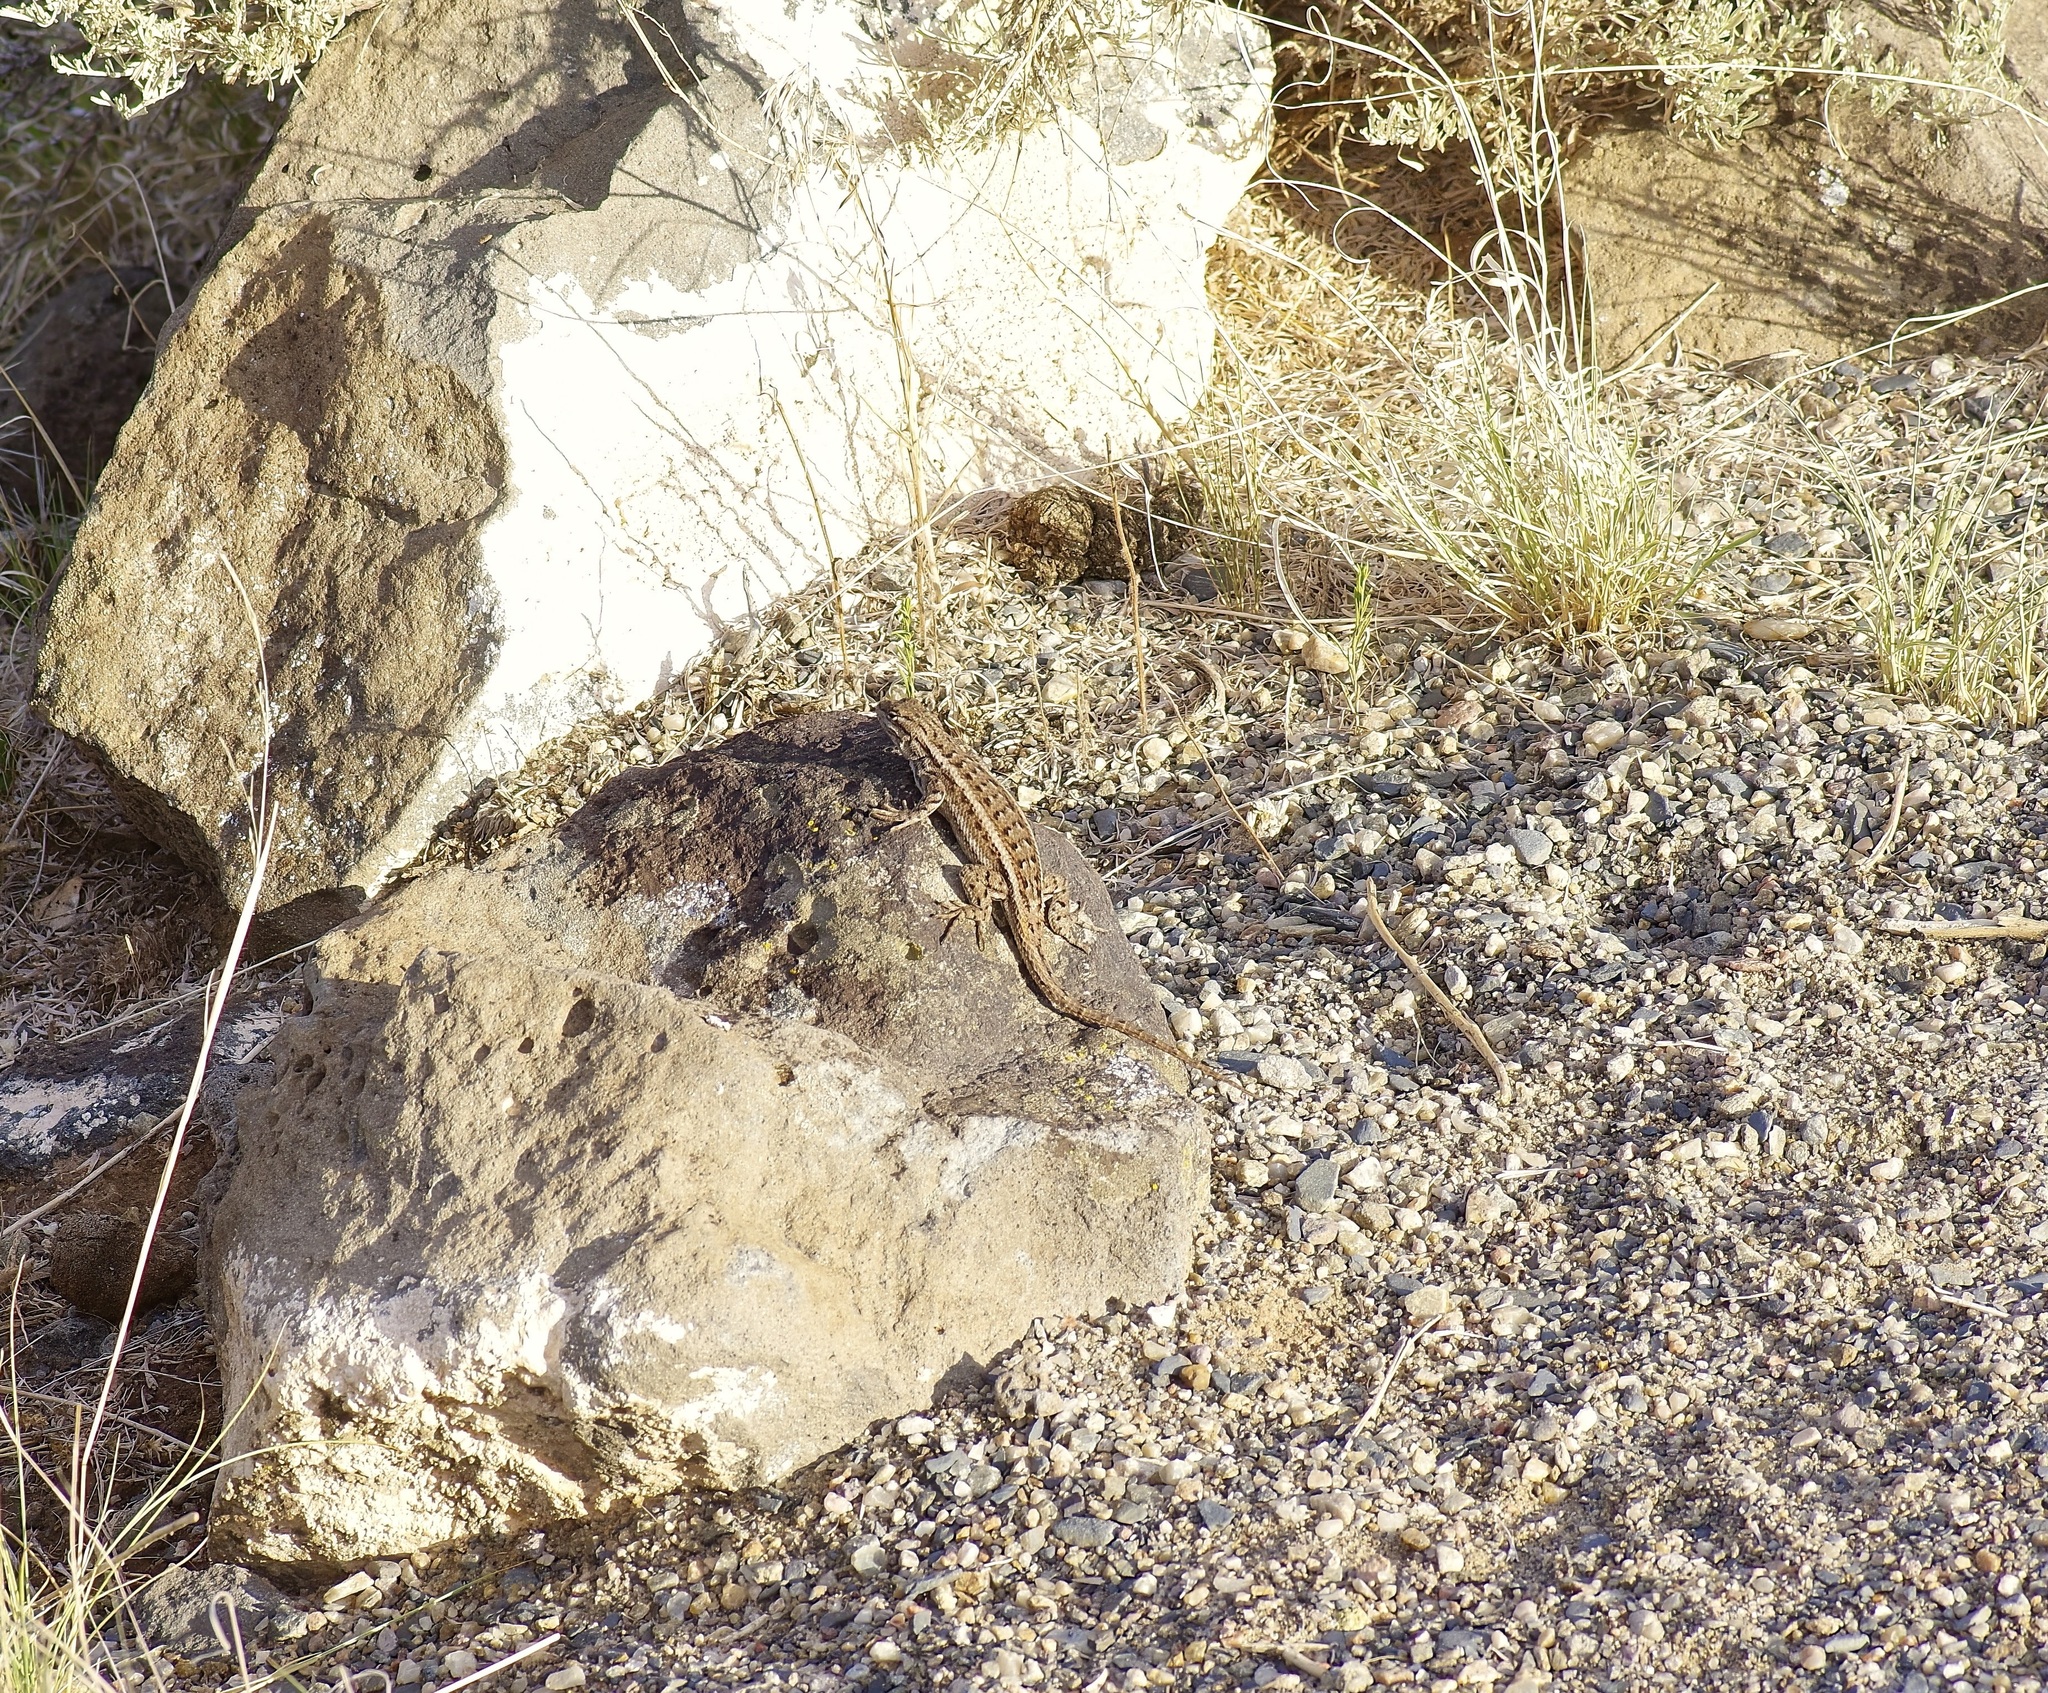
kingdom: Animalia
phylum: Chordata
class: Squamata
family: Phrynosomatidae
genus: Sceloporus
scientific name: Sceloporus
